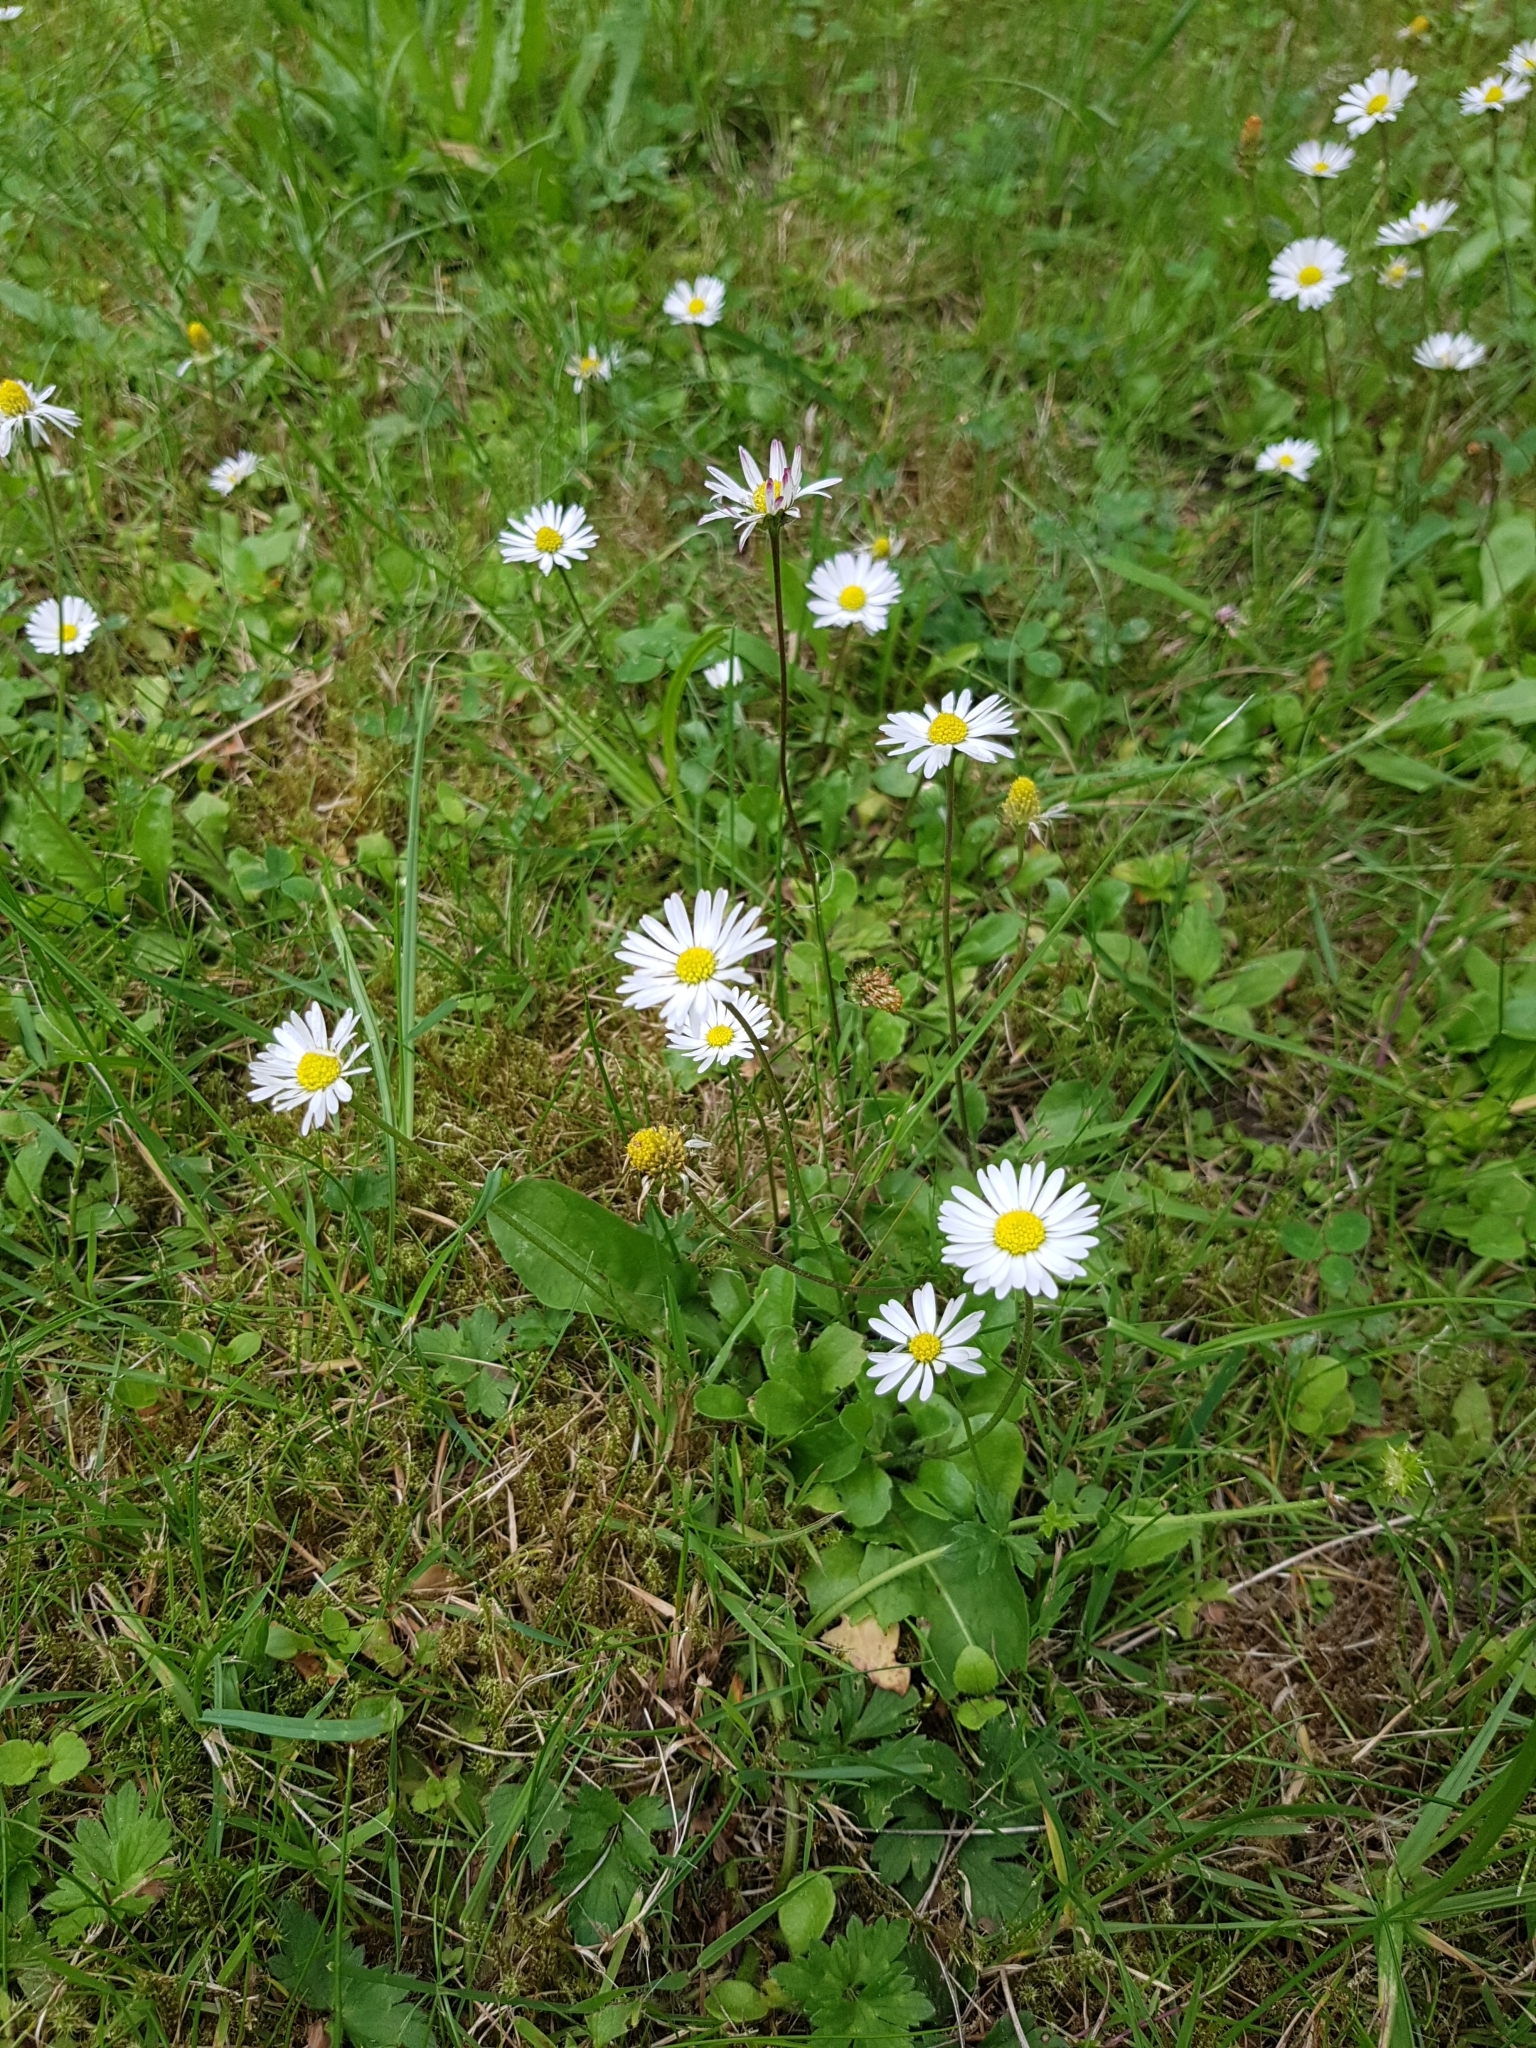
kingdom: Plantae
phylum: Tracheophyta
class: Magnoliopsida
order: Asterales
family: Asteraceae
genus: Bellis
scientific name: Bellis perennis
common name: Lawndaisy
